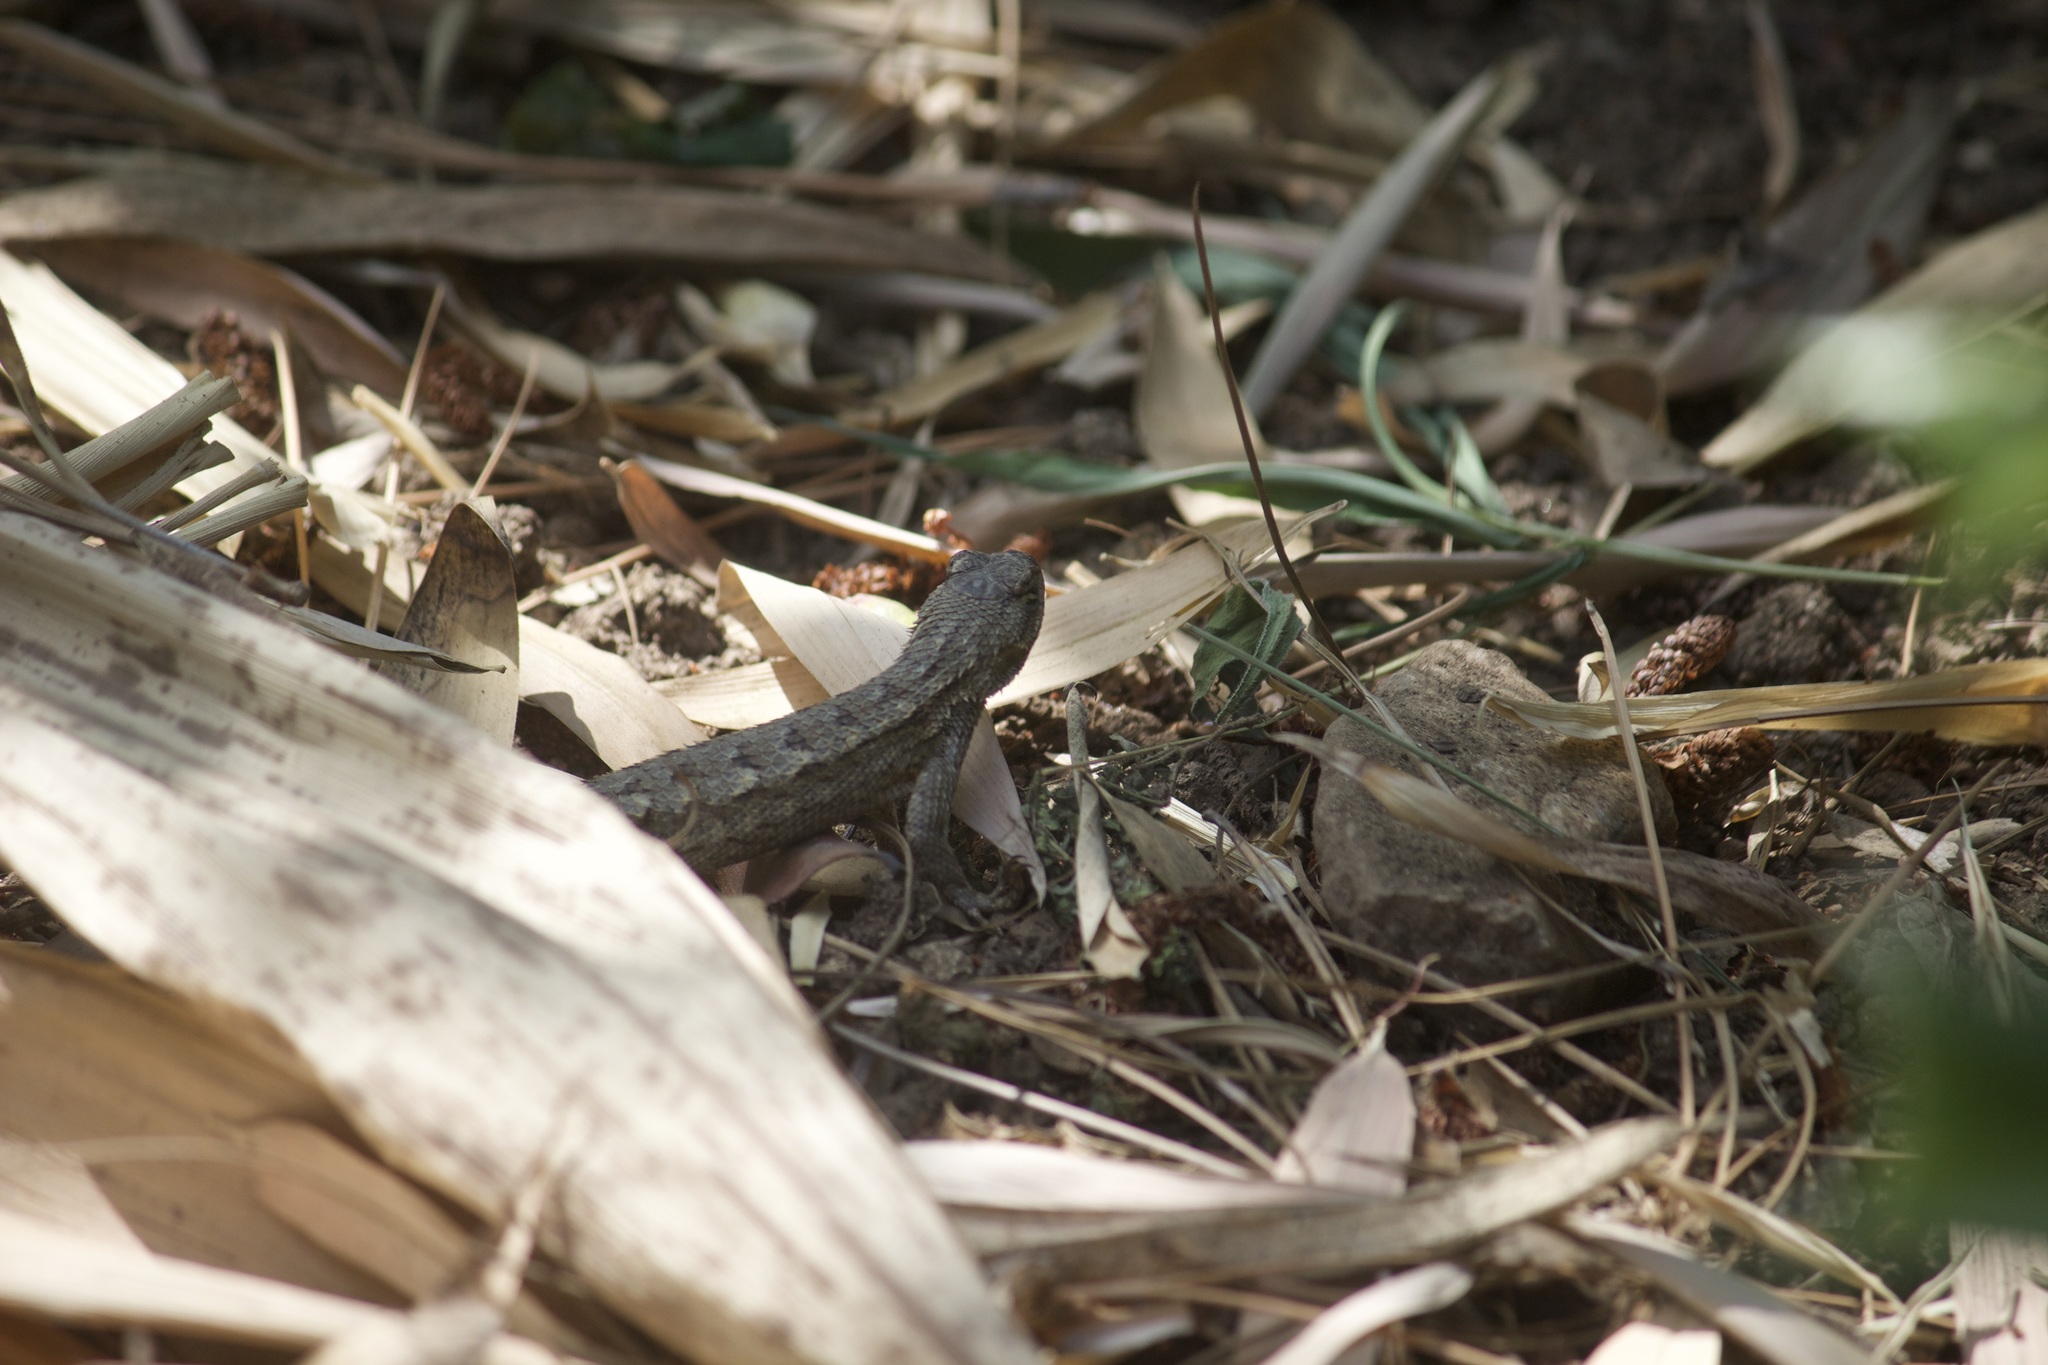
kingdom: Animalia
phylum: Chordata
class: Squamata
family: Phrynosomatidae
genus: Sceloporus
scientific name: Sceloporus occidentalis
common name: Western fence lizard
